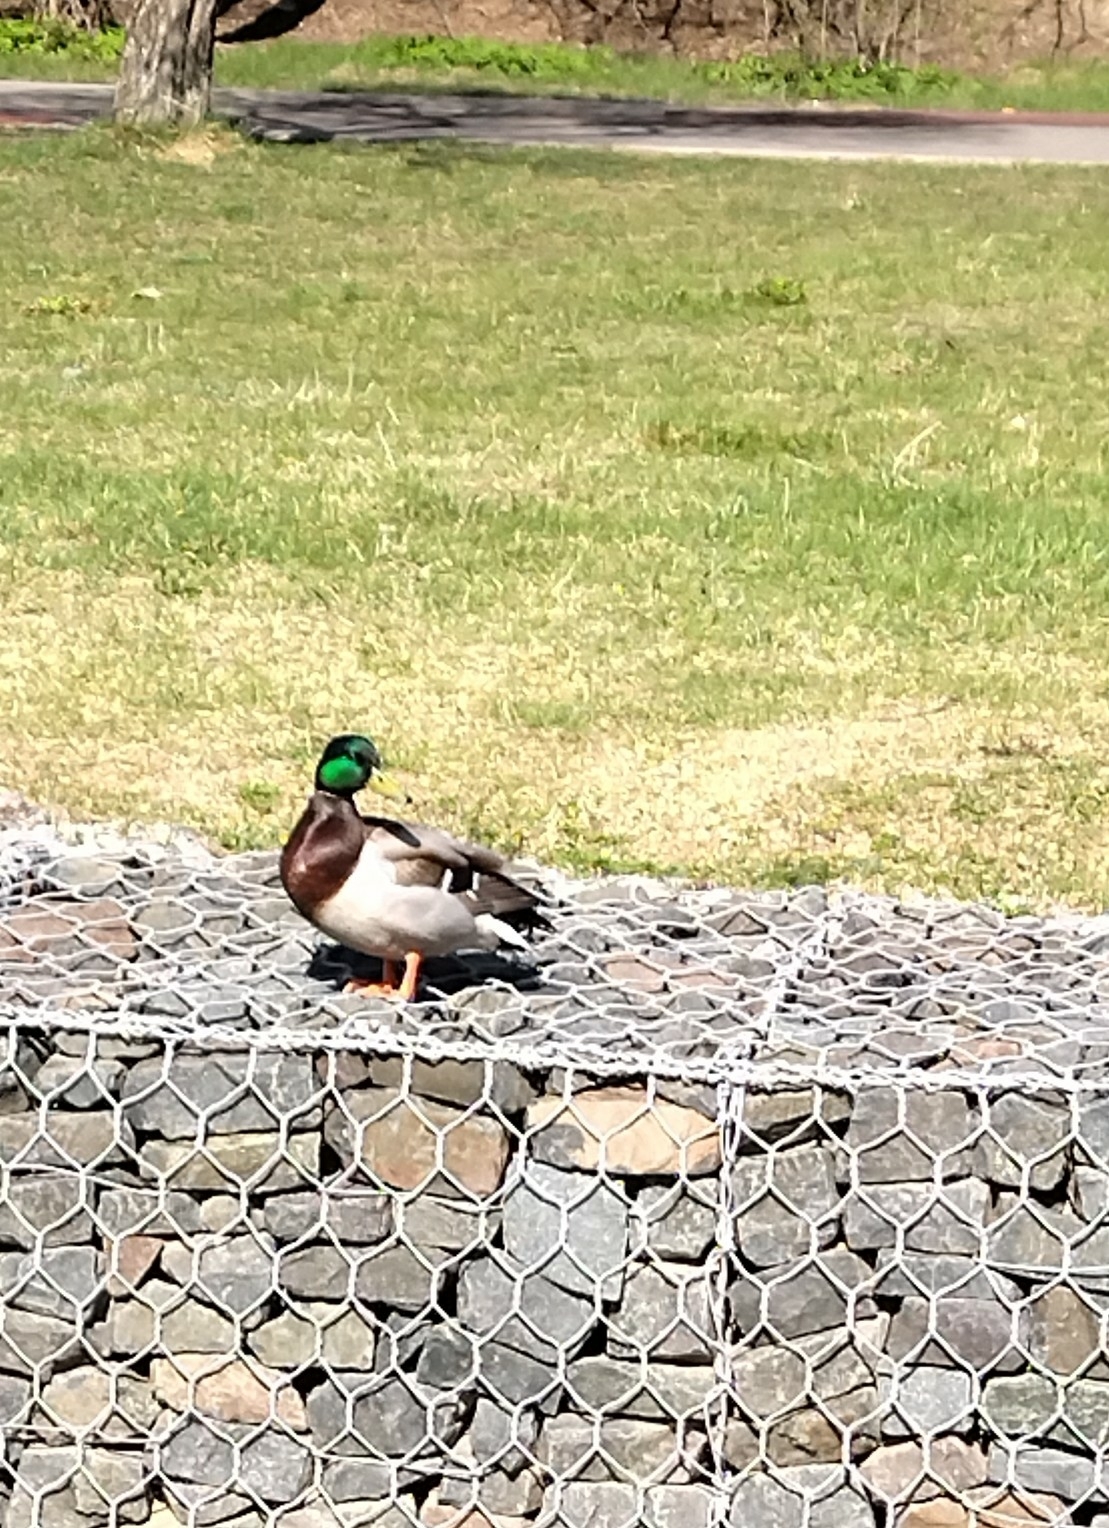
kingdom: Animalia
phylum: Chordata
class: Aves
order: Anseriformes
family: Anatidae
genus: Anas
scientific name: Anas platyrhynchos
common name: Mallard
